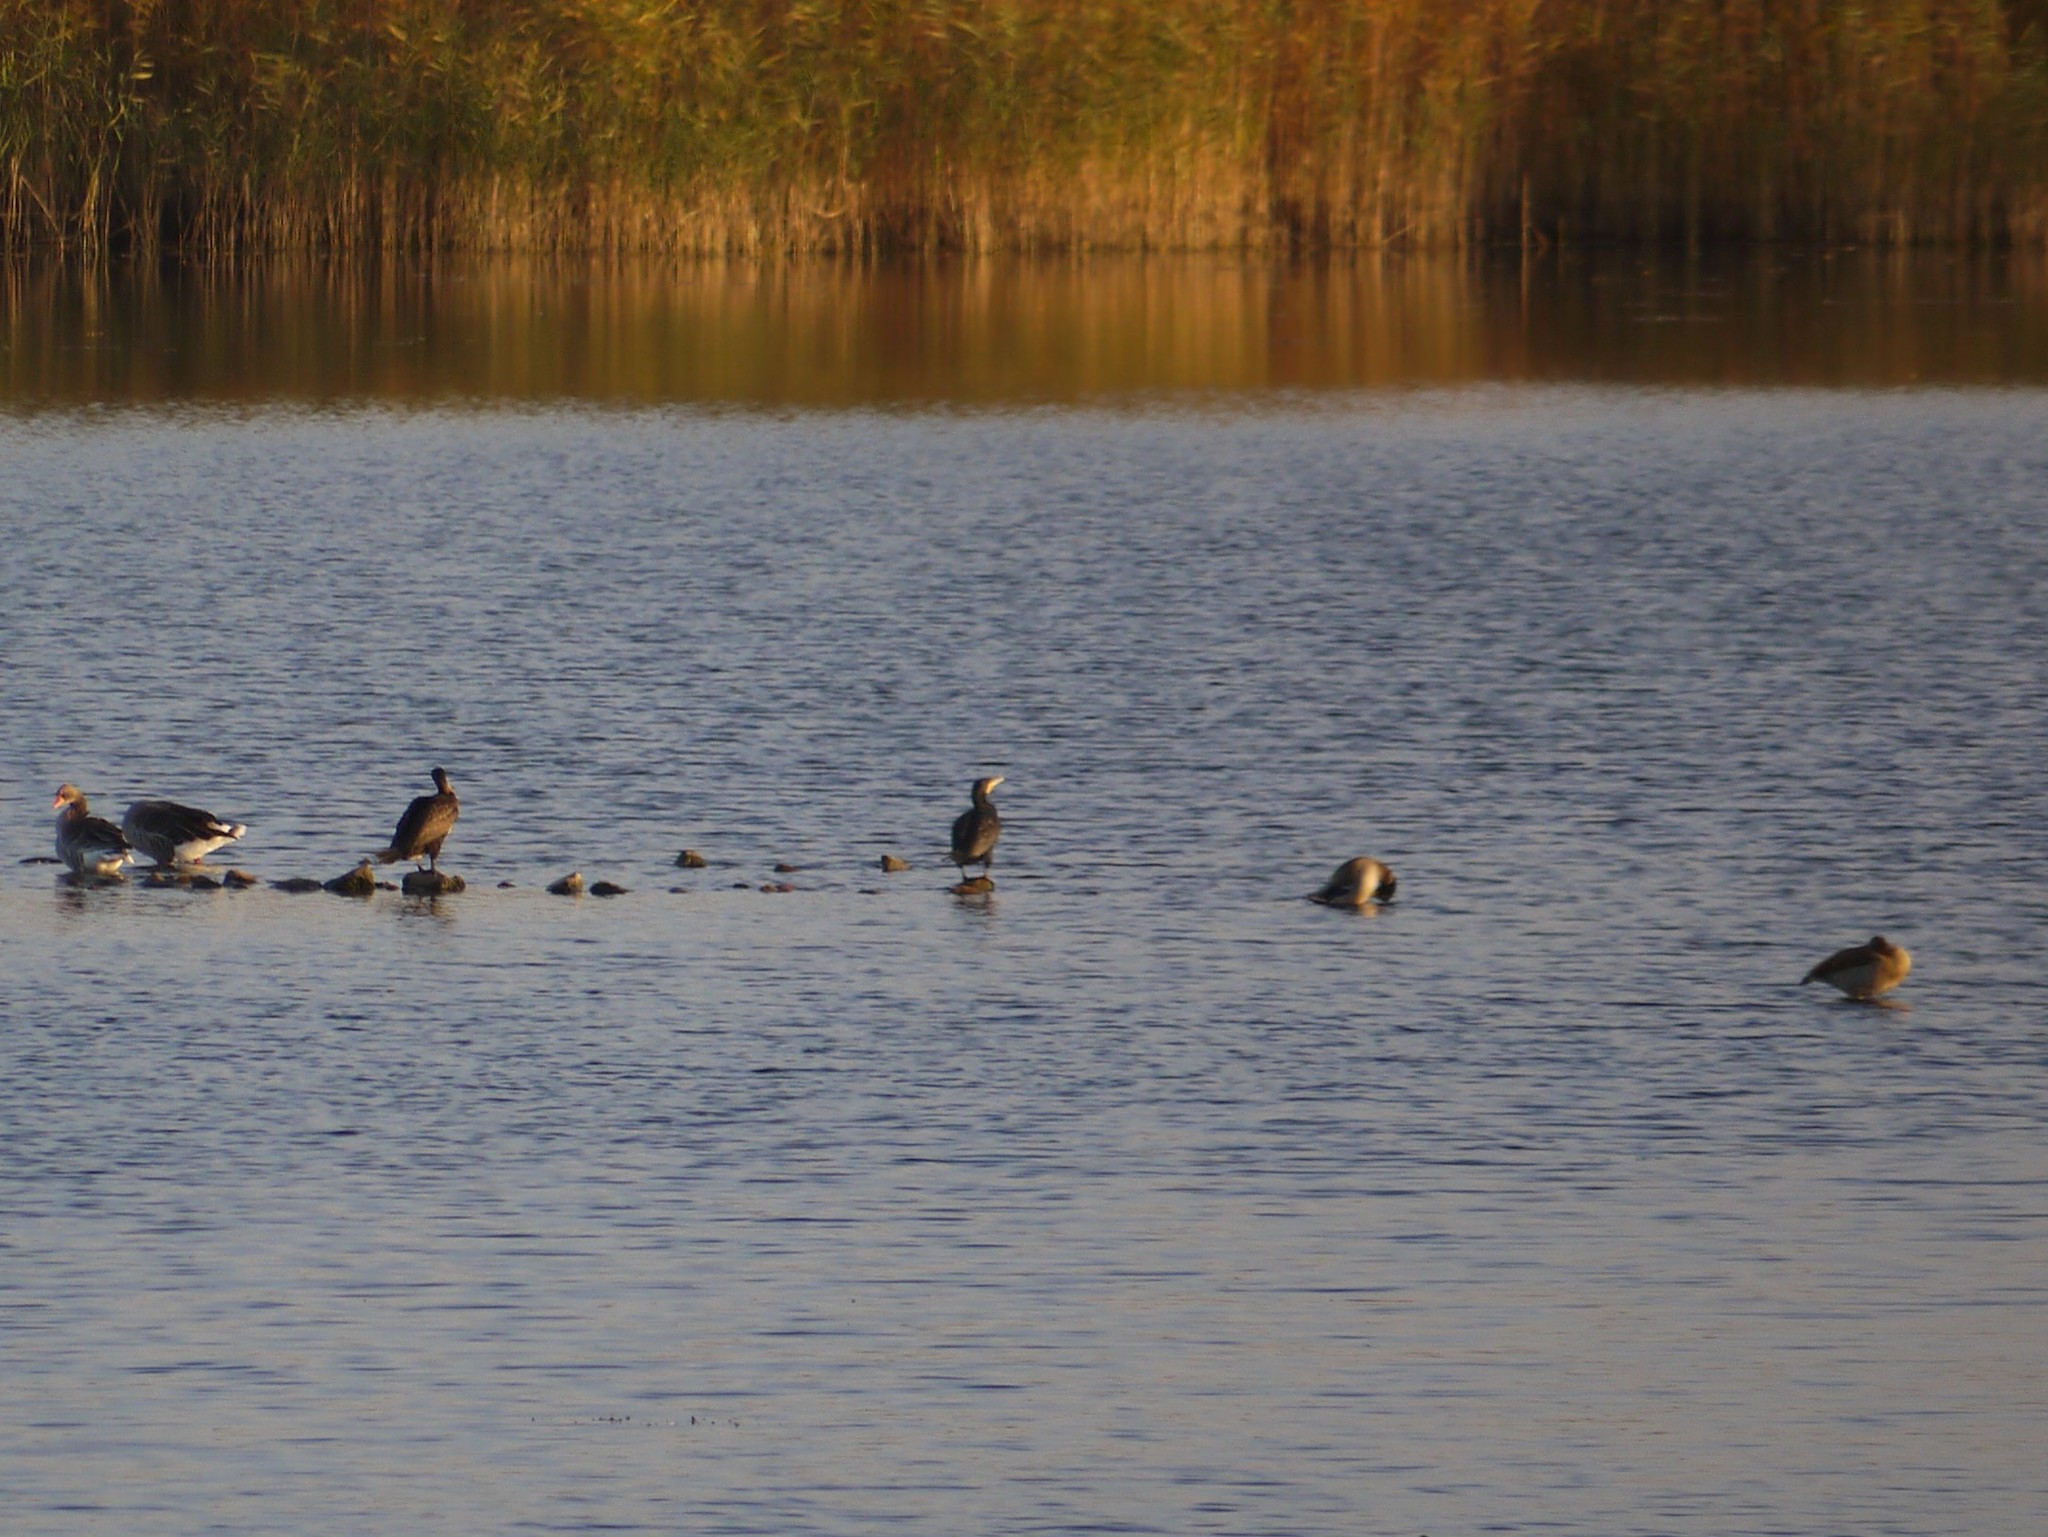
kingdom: Animalia
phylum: Chordata
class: Aves
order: Suliformes
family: Phalacrocoracidae
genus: Phalacrocorax
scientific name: Phalacrocorax carbo
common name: Great cormorant
